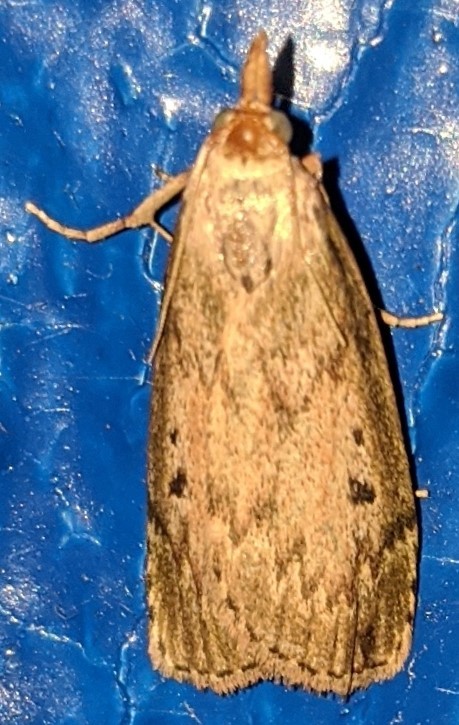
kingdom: Animalia
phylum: Arthropoda
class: Insecta
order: Lepidoptera
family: Pyralidae
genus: Aphomia
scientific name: Aphomia sociella
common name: Bee moth
